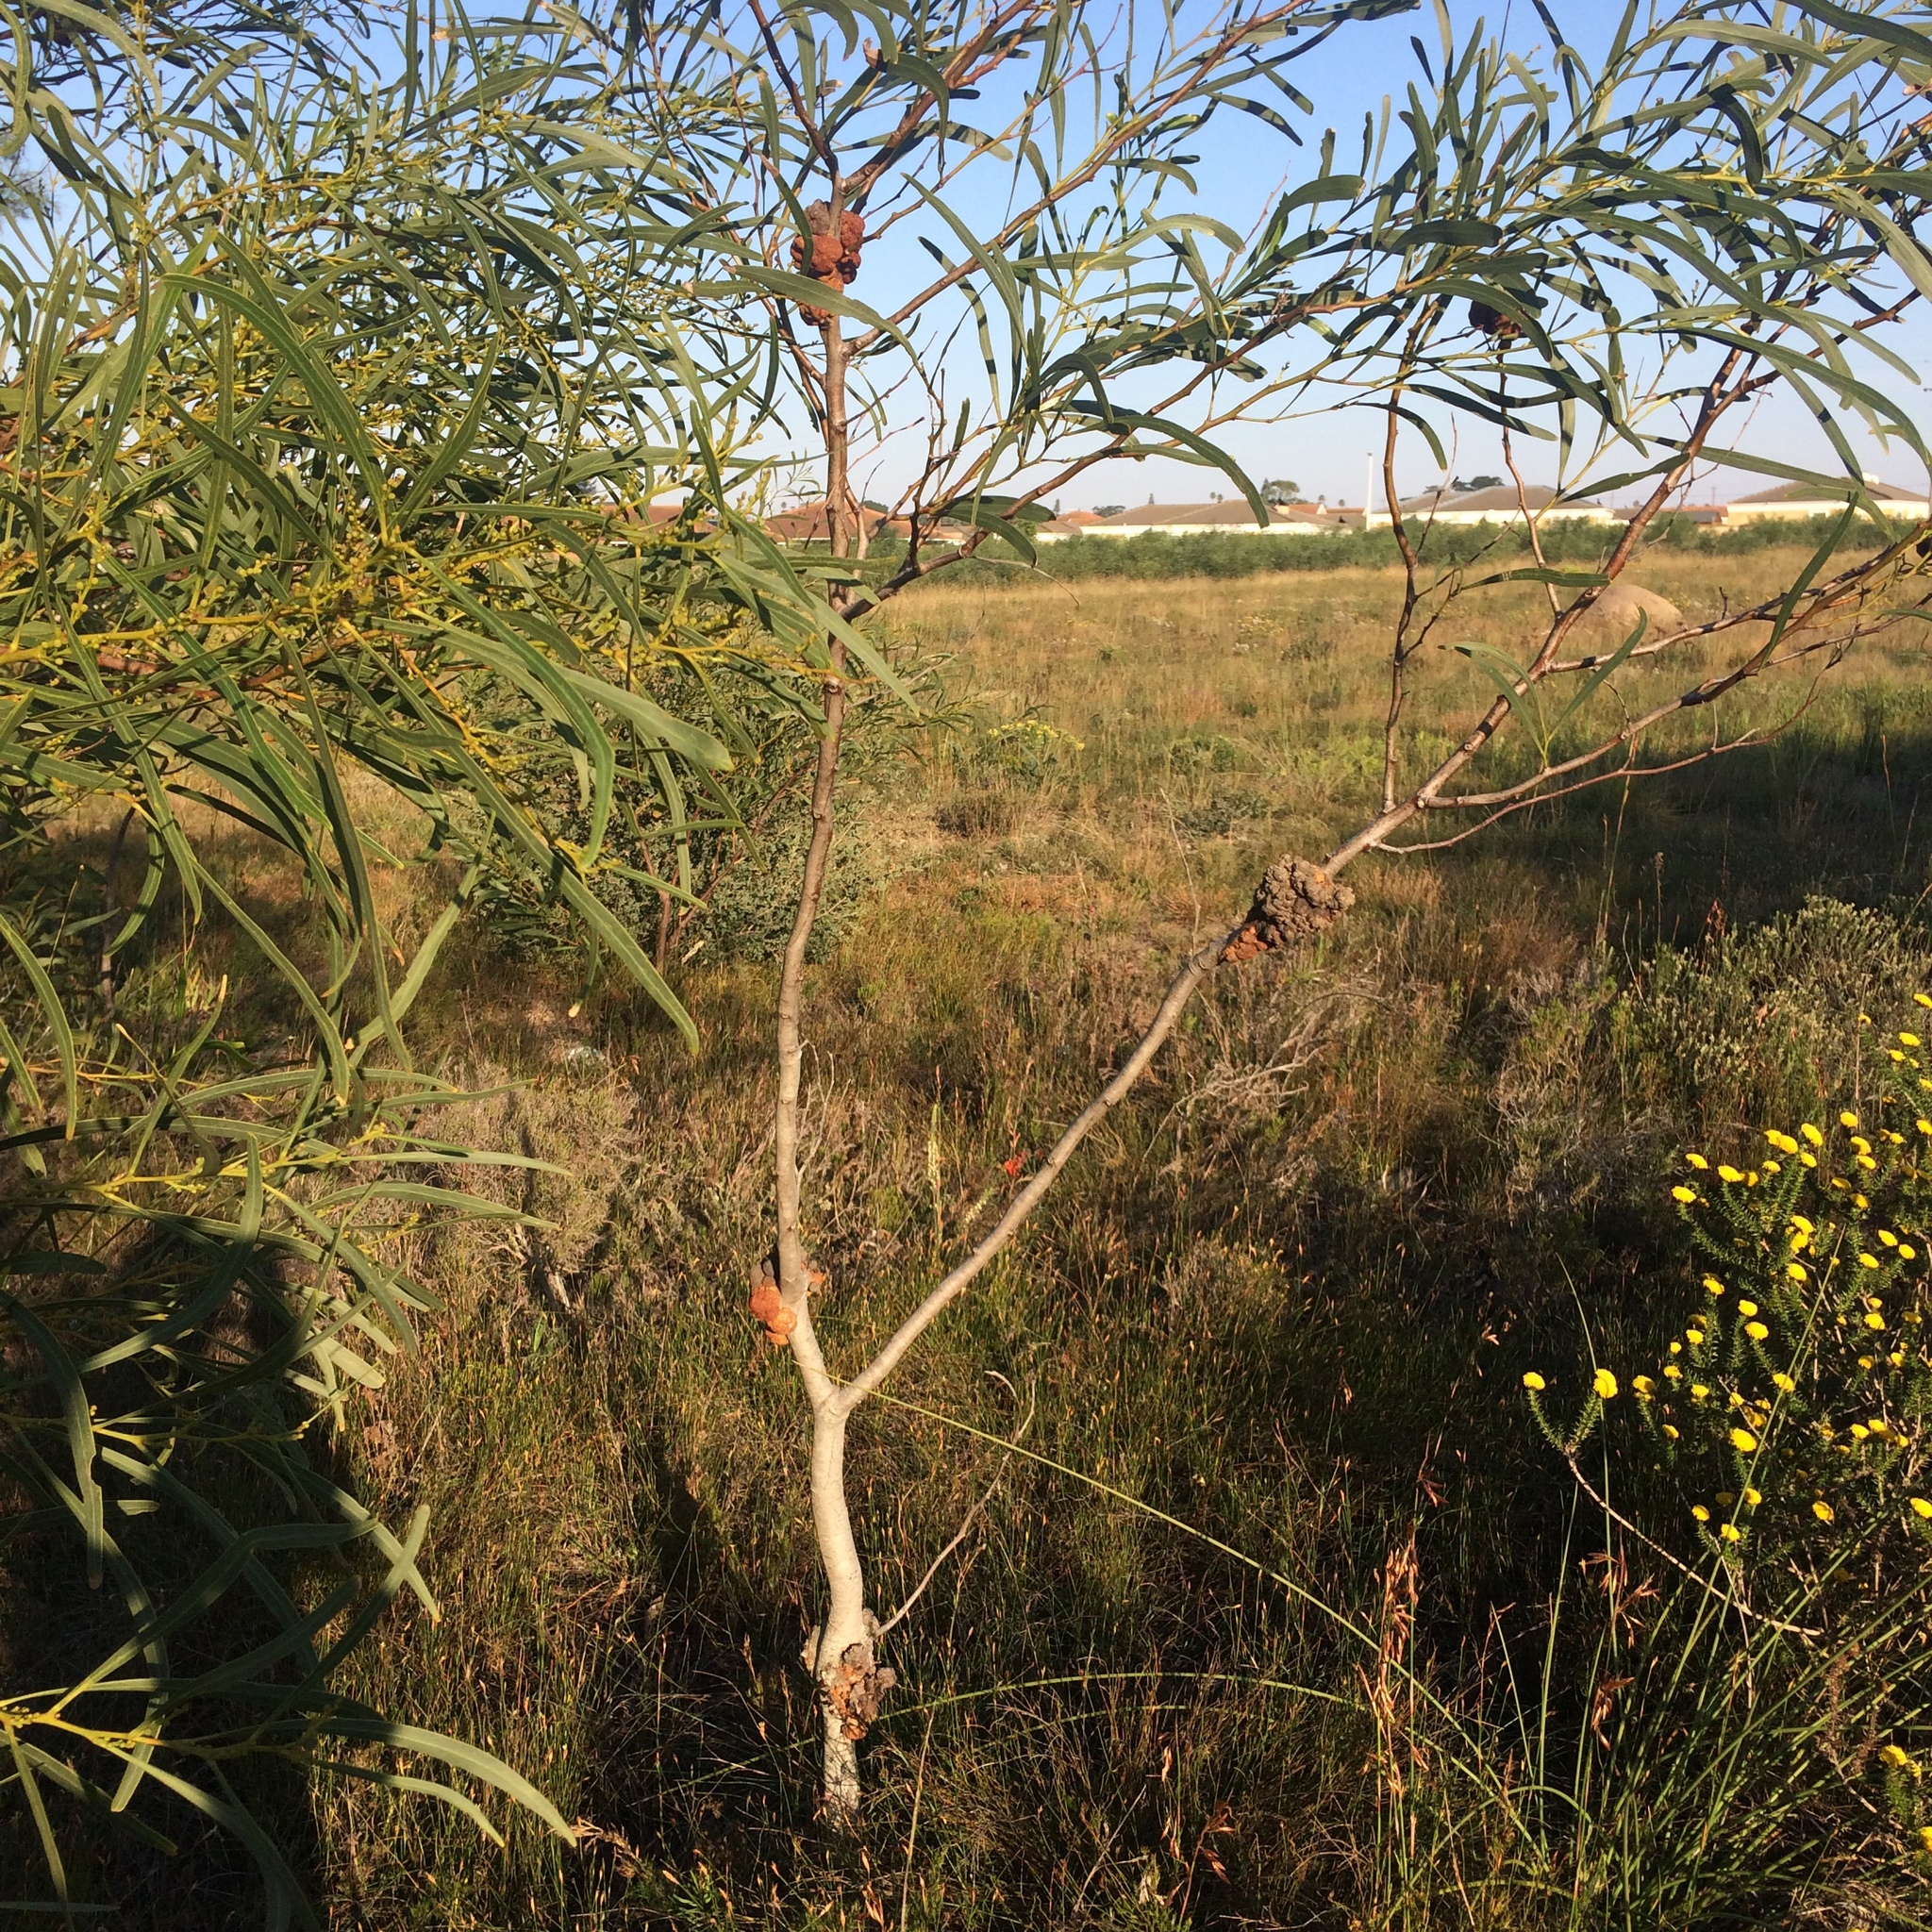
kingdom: Plantae
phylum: Tracheophyta
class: Magnoliopsida
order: Fabales
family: Fabaceae
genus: Acacia
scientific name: Acacia saligna
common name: Orange wattle
